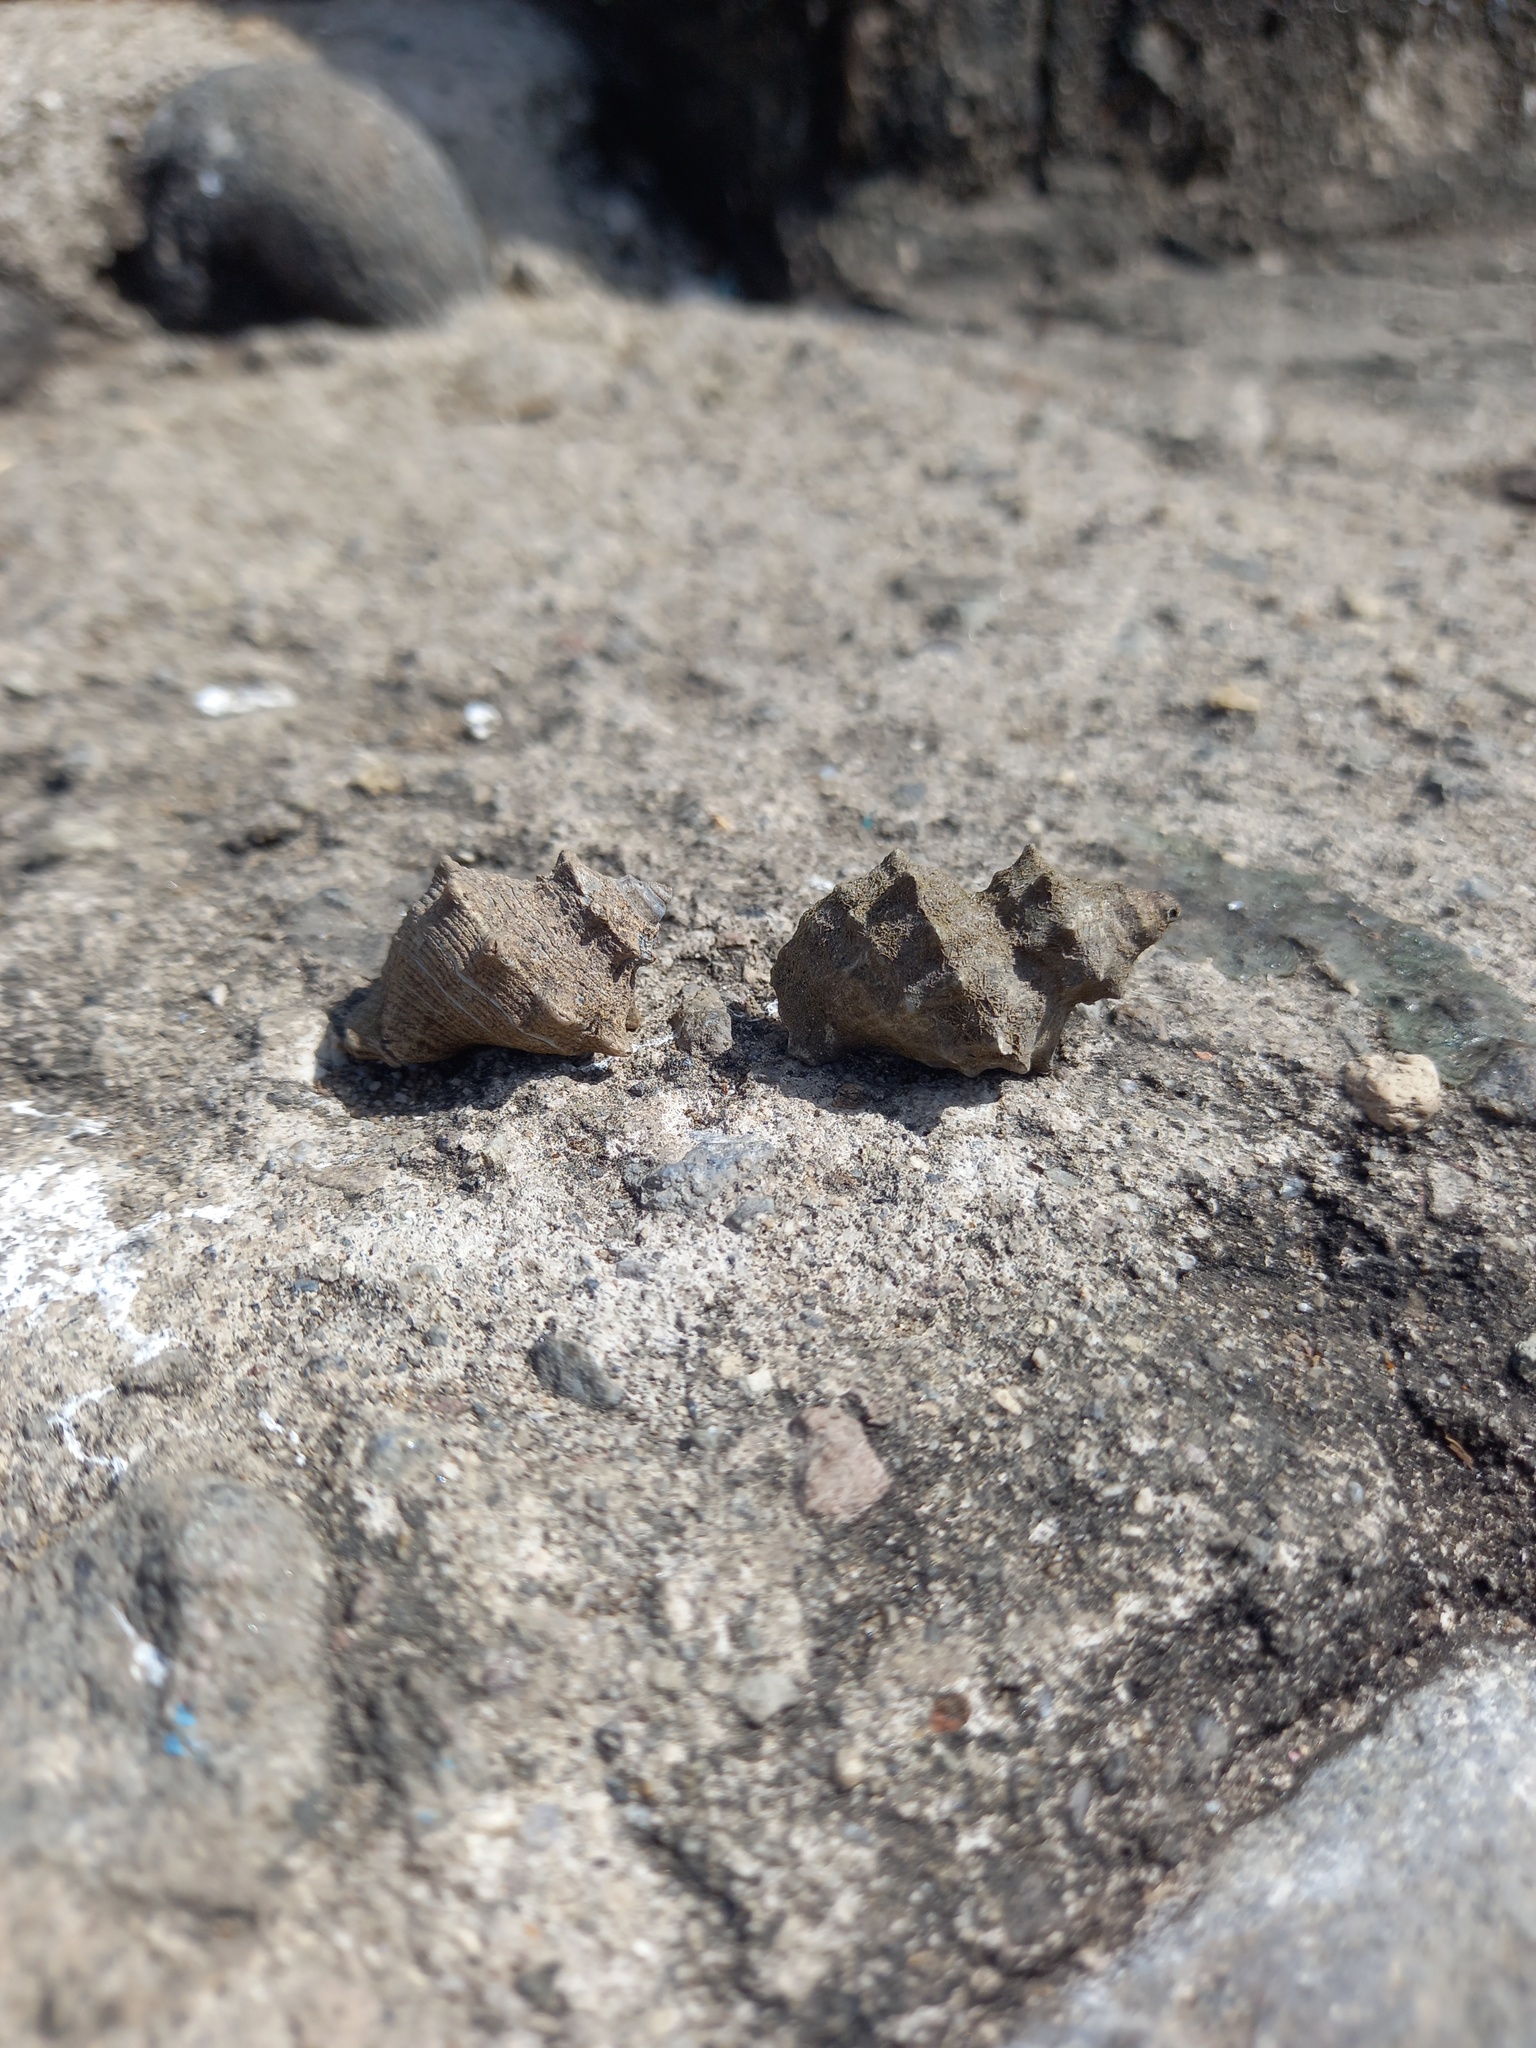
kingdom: Animalia
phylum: Mollusca
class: Gastropoda
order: Neogastropoda
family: Muricidae
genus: Thaisella
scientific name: Thaisella kiosquiformis
